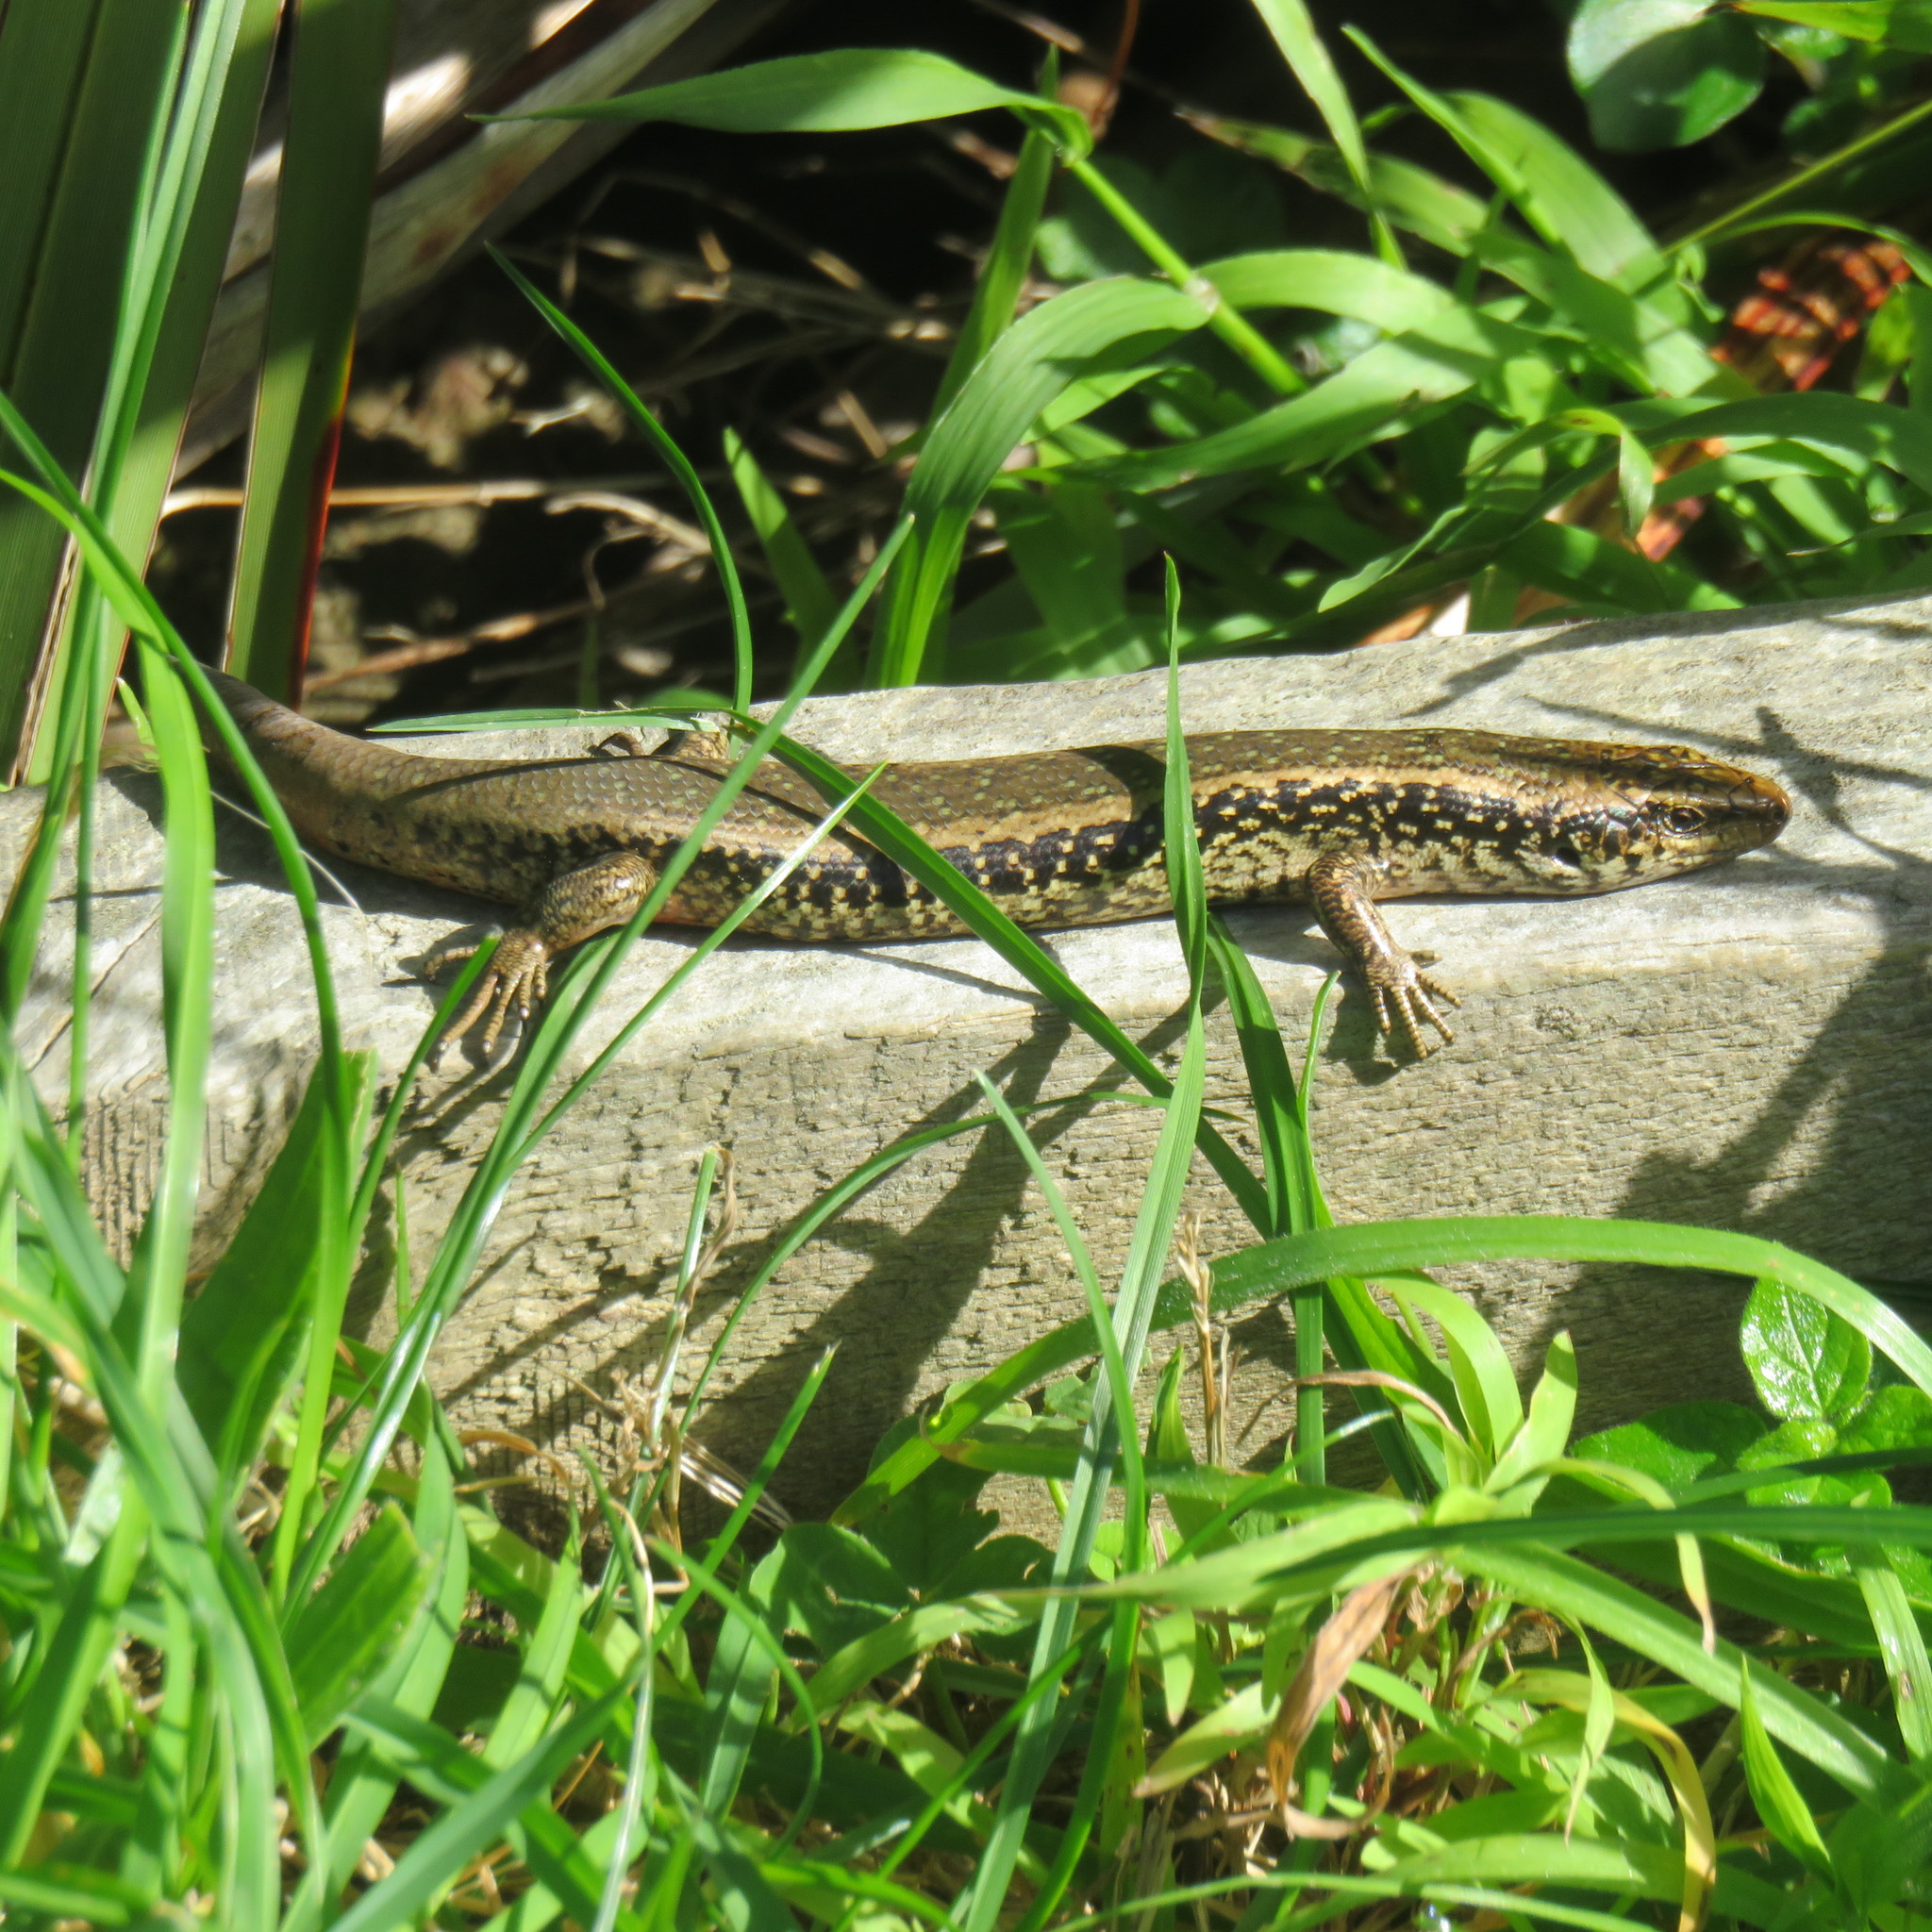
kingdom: Animalia
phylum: Chordata
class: Squamata
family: Scincidae
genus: Oligosoma
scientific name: Oligosoma kokowai
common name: Northern spotted skink
